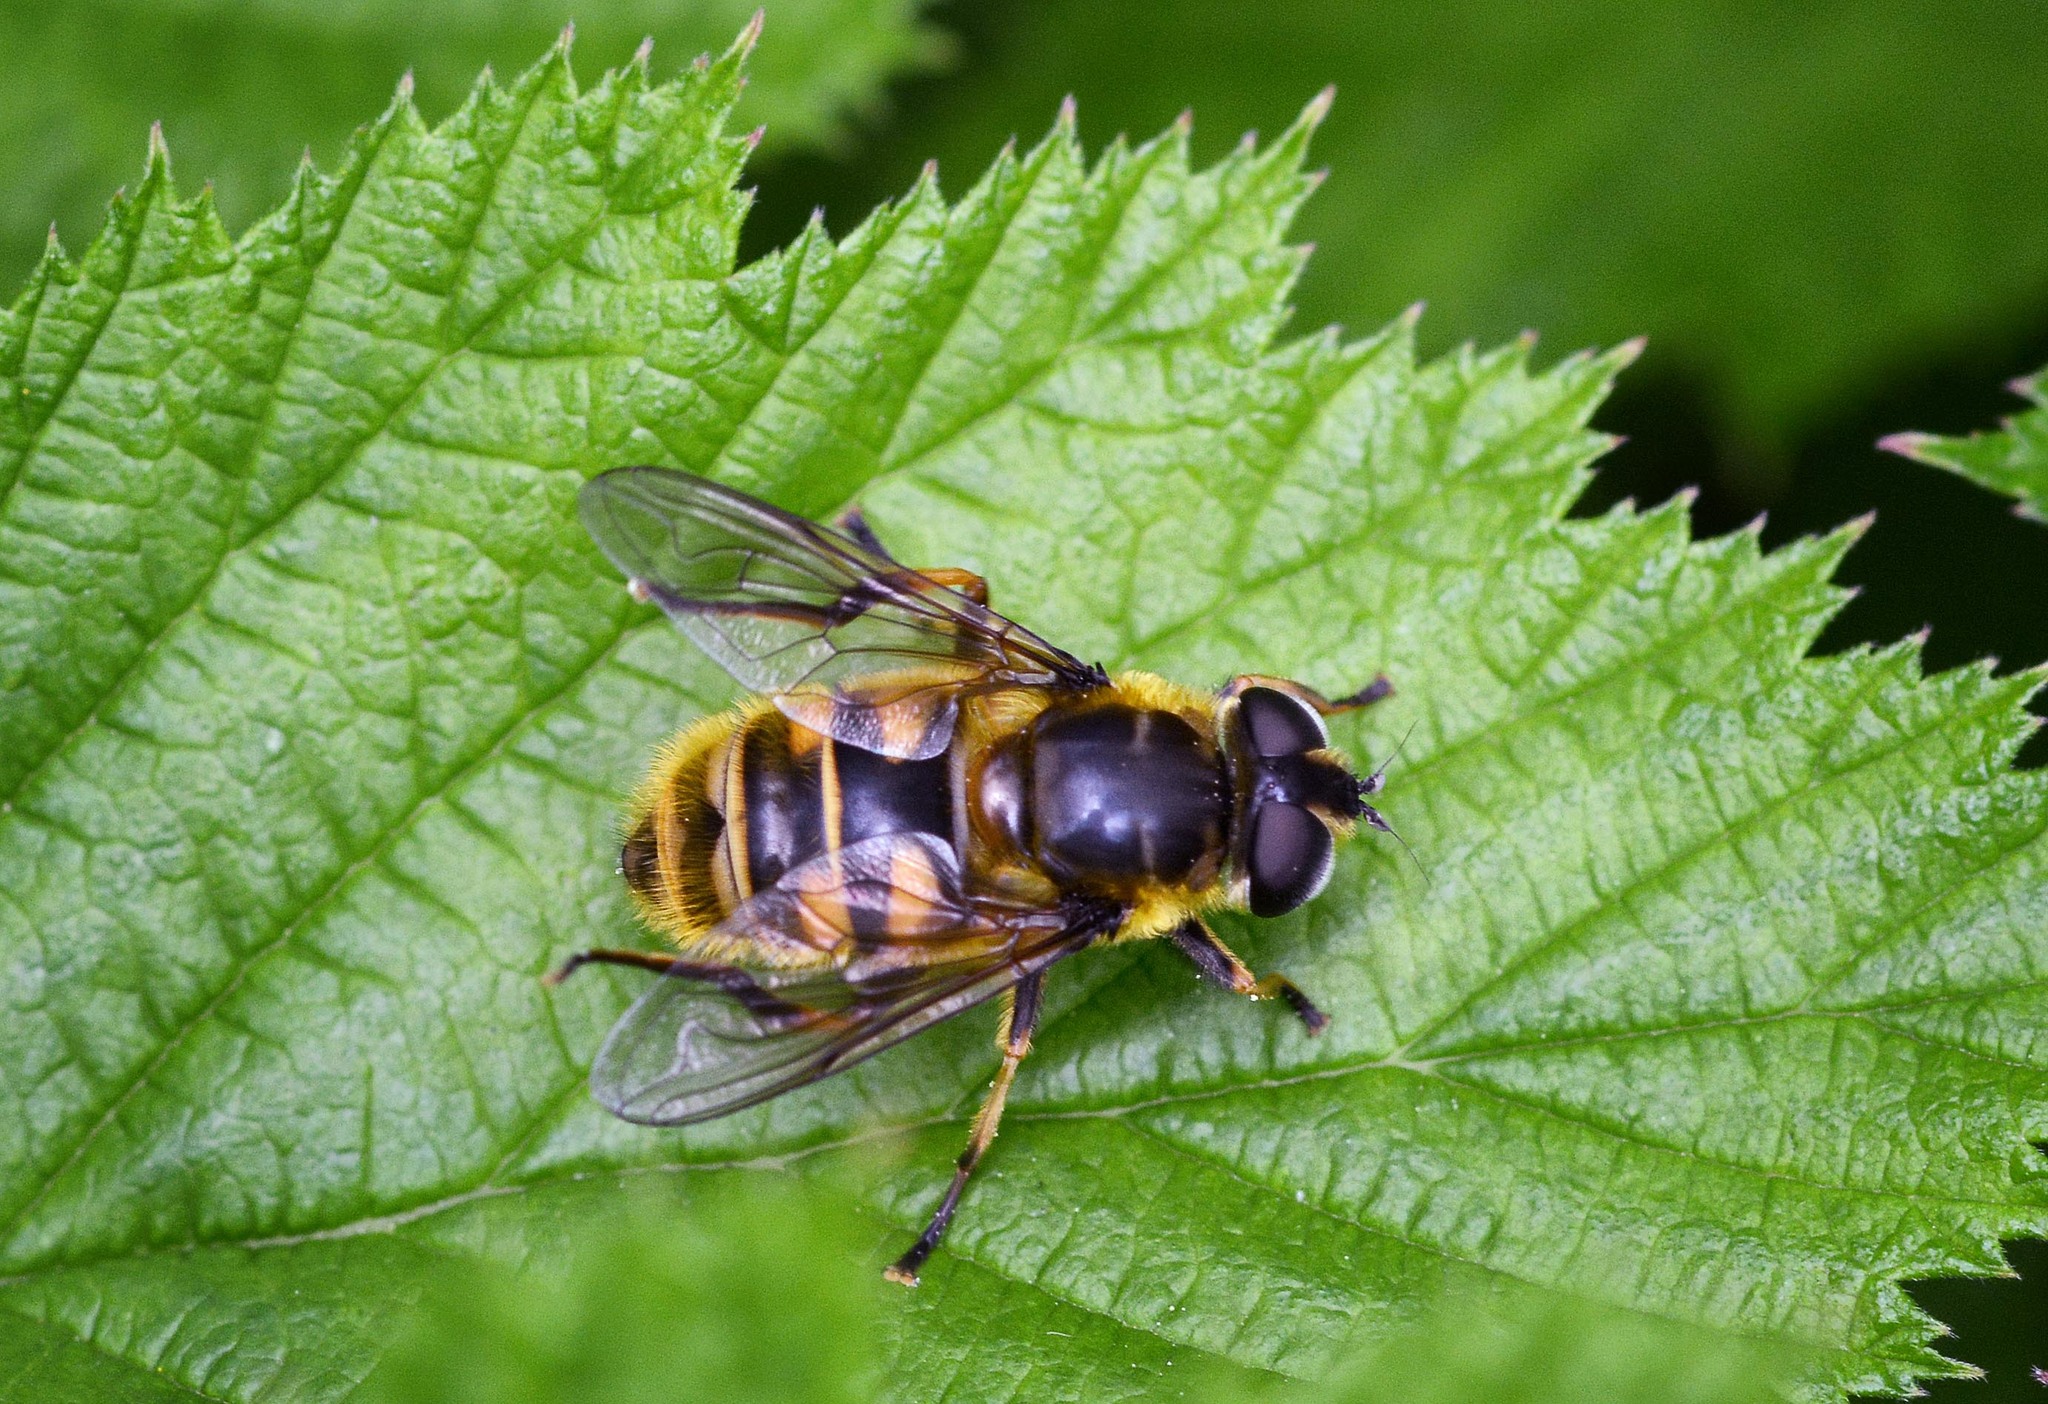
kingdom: Animalia
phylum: Arthropoda
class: Insecta
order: Diptera
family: Syrphidae
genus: Myathropa
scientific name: Myathropa florea
